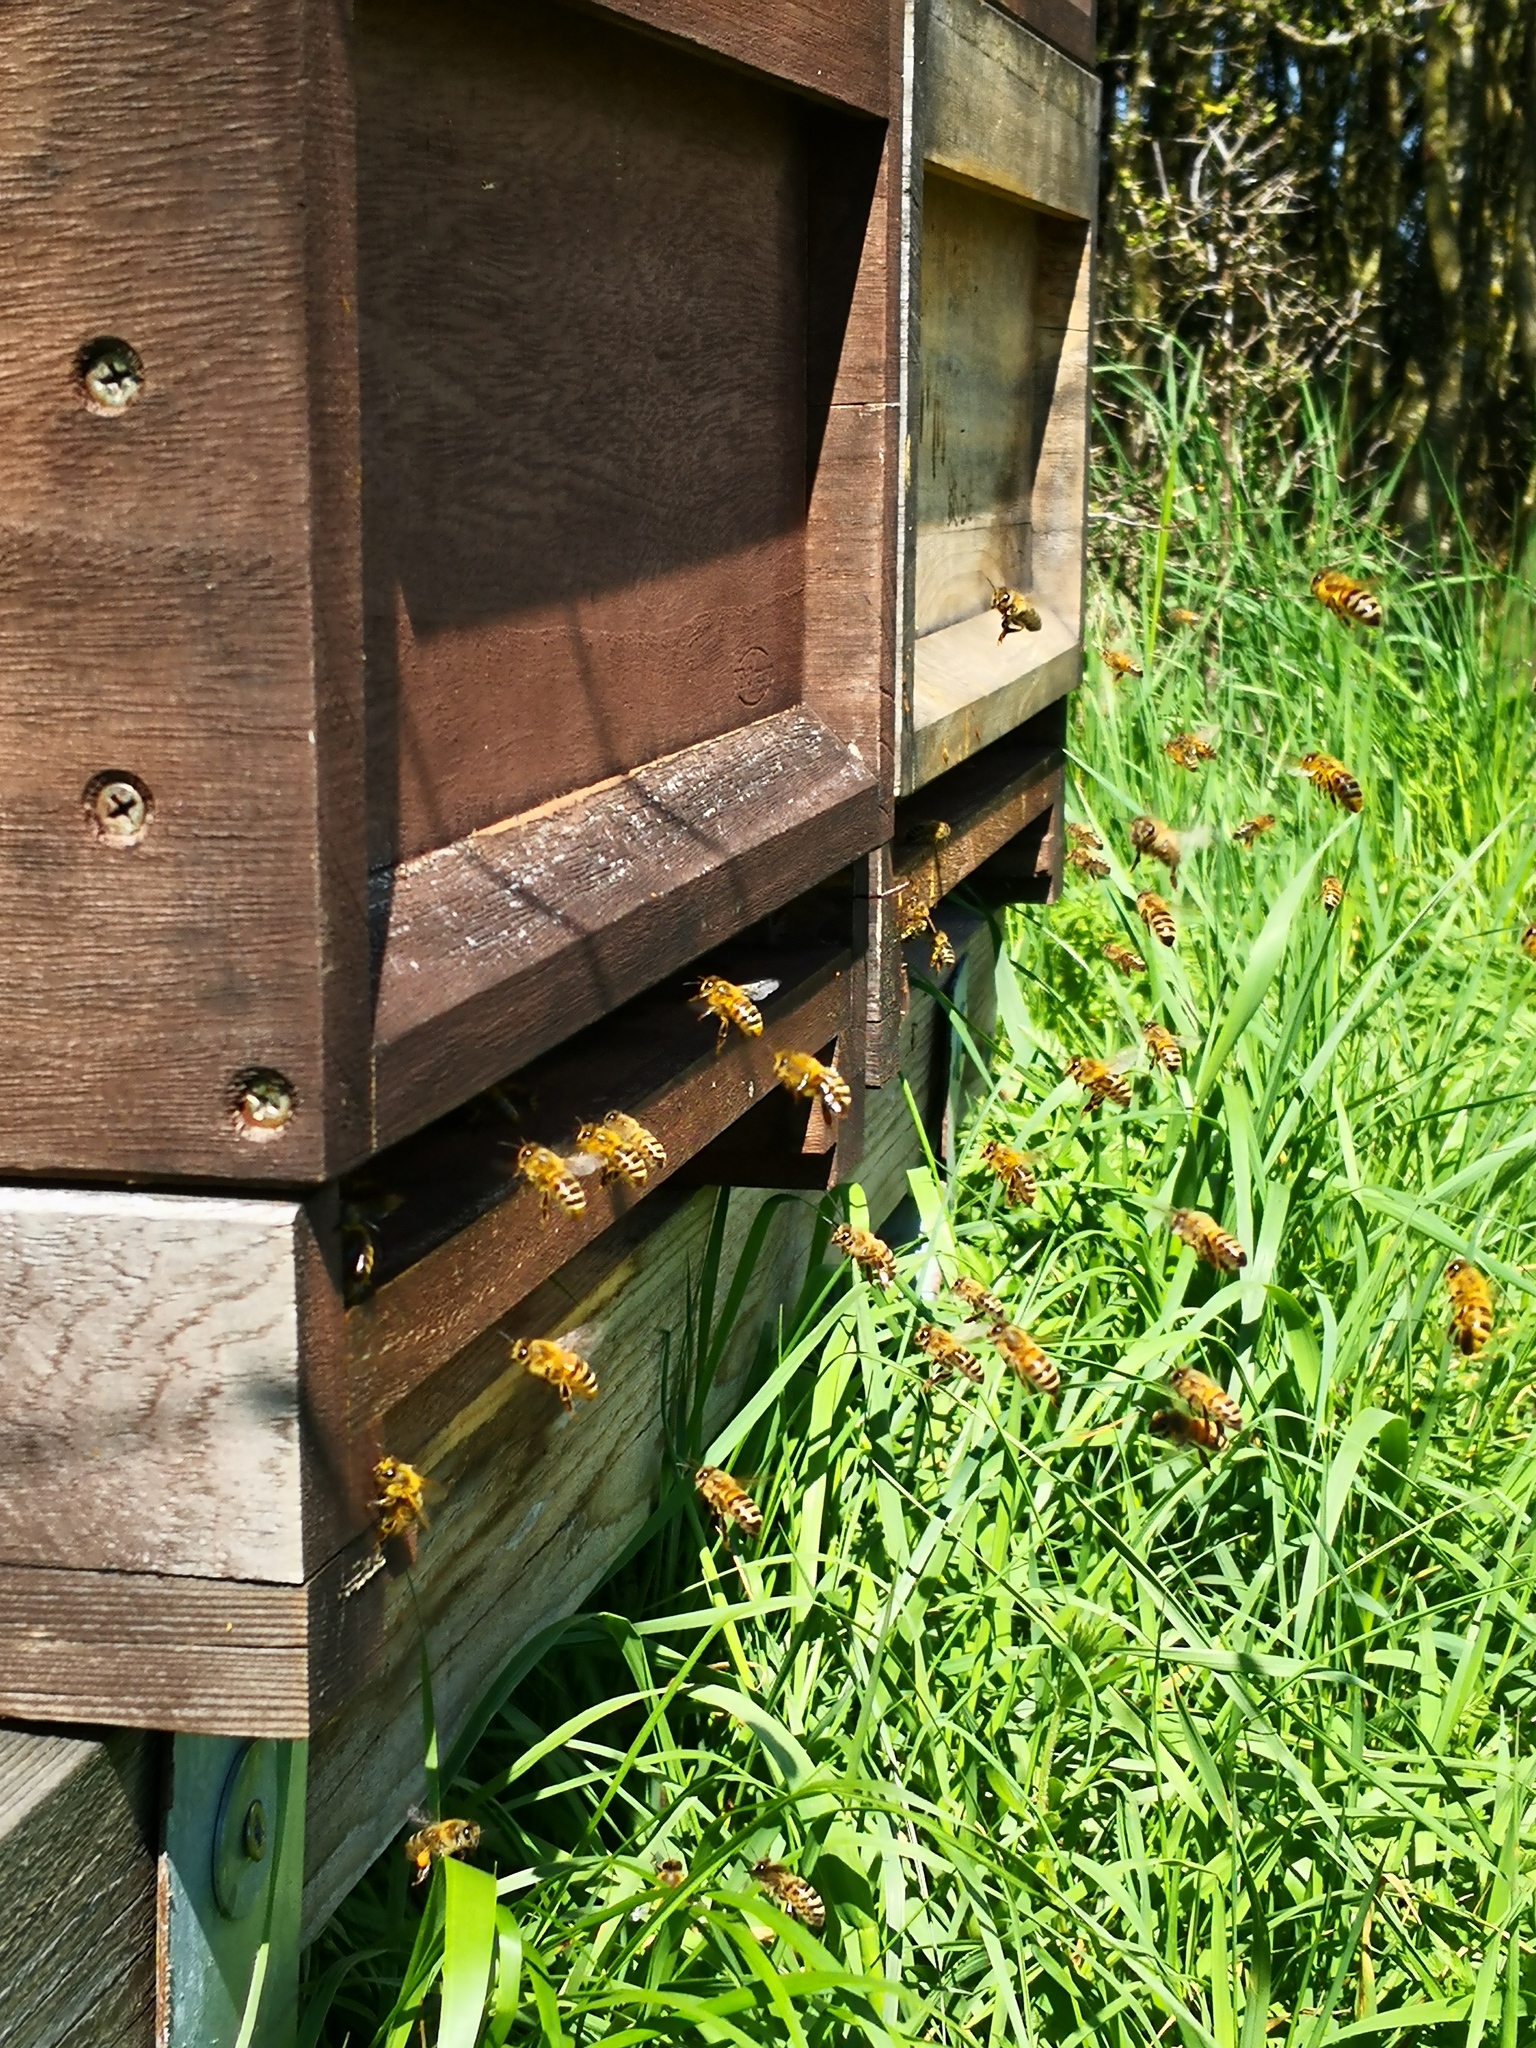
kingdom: Animalia
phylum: Arthropoda
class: Insecta
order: Hymenoptera
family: Apidae
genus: Apis
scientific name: Apis mellifera
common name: Honey bee
